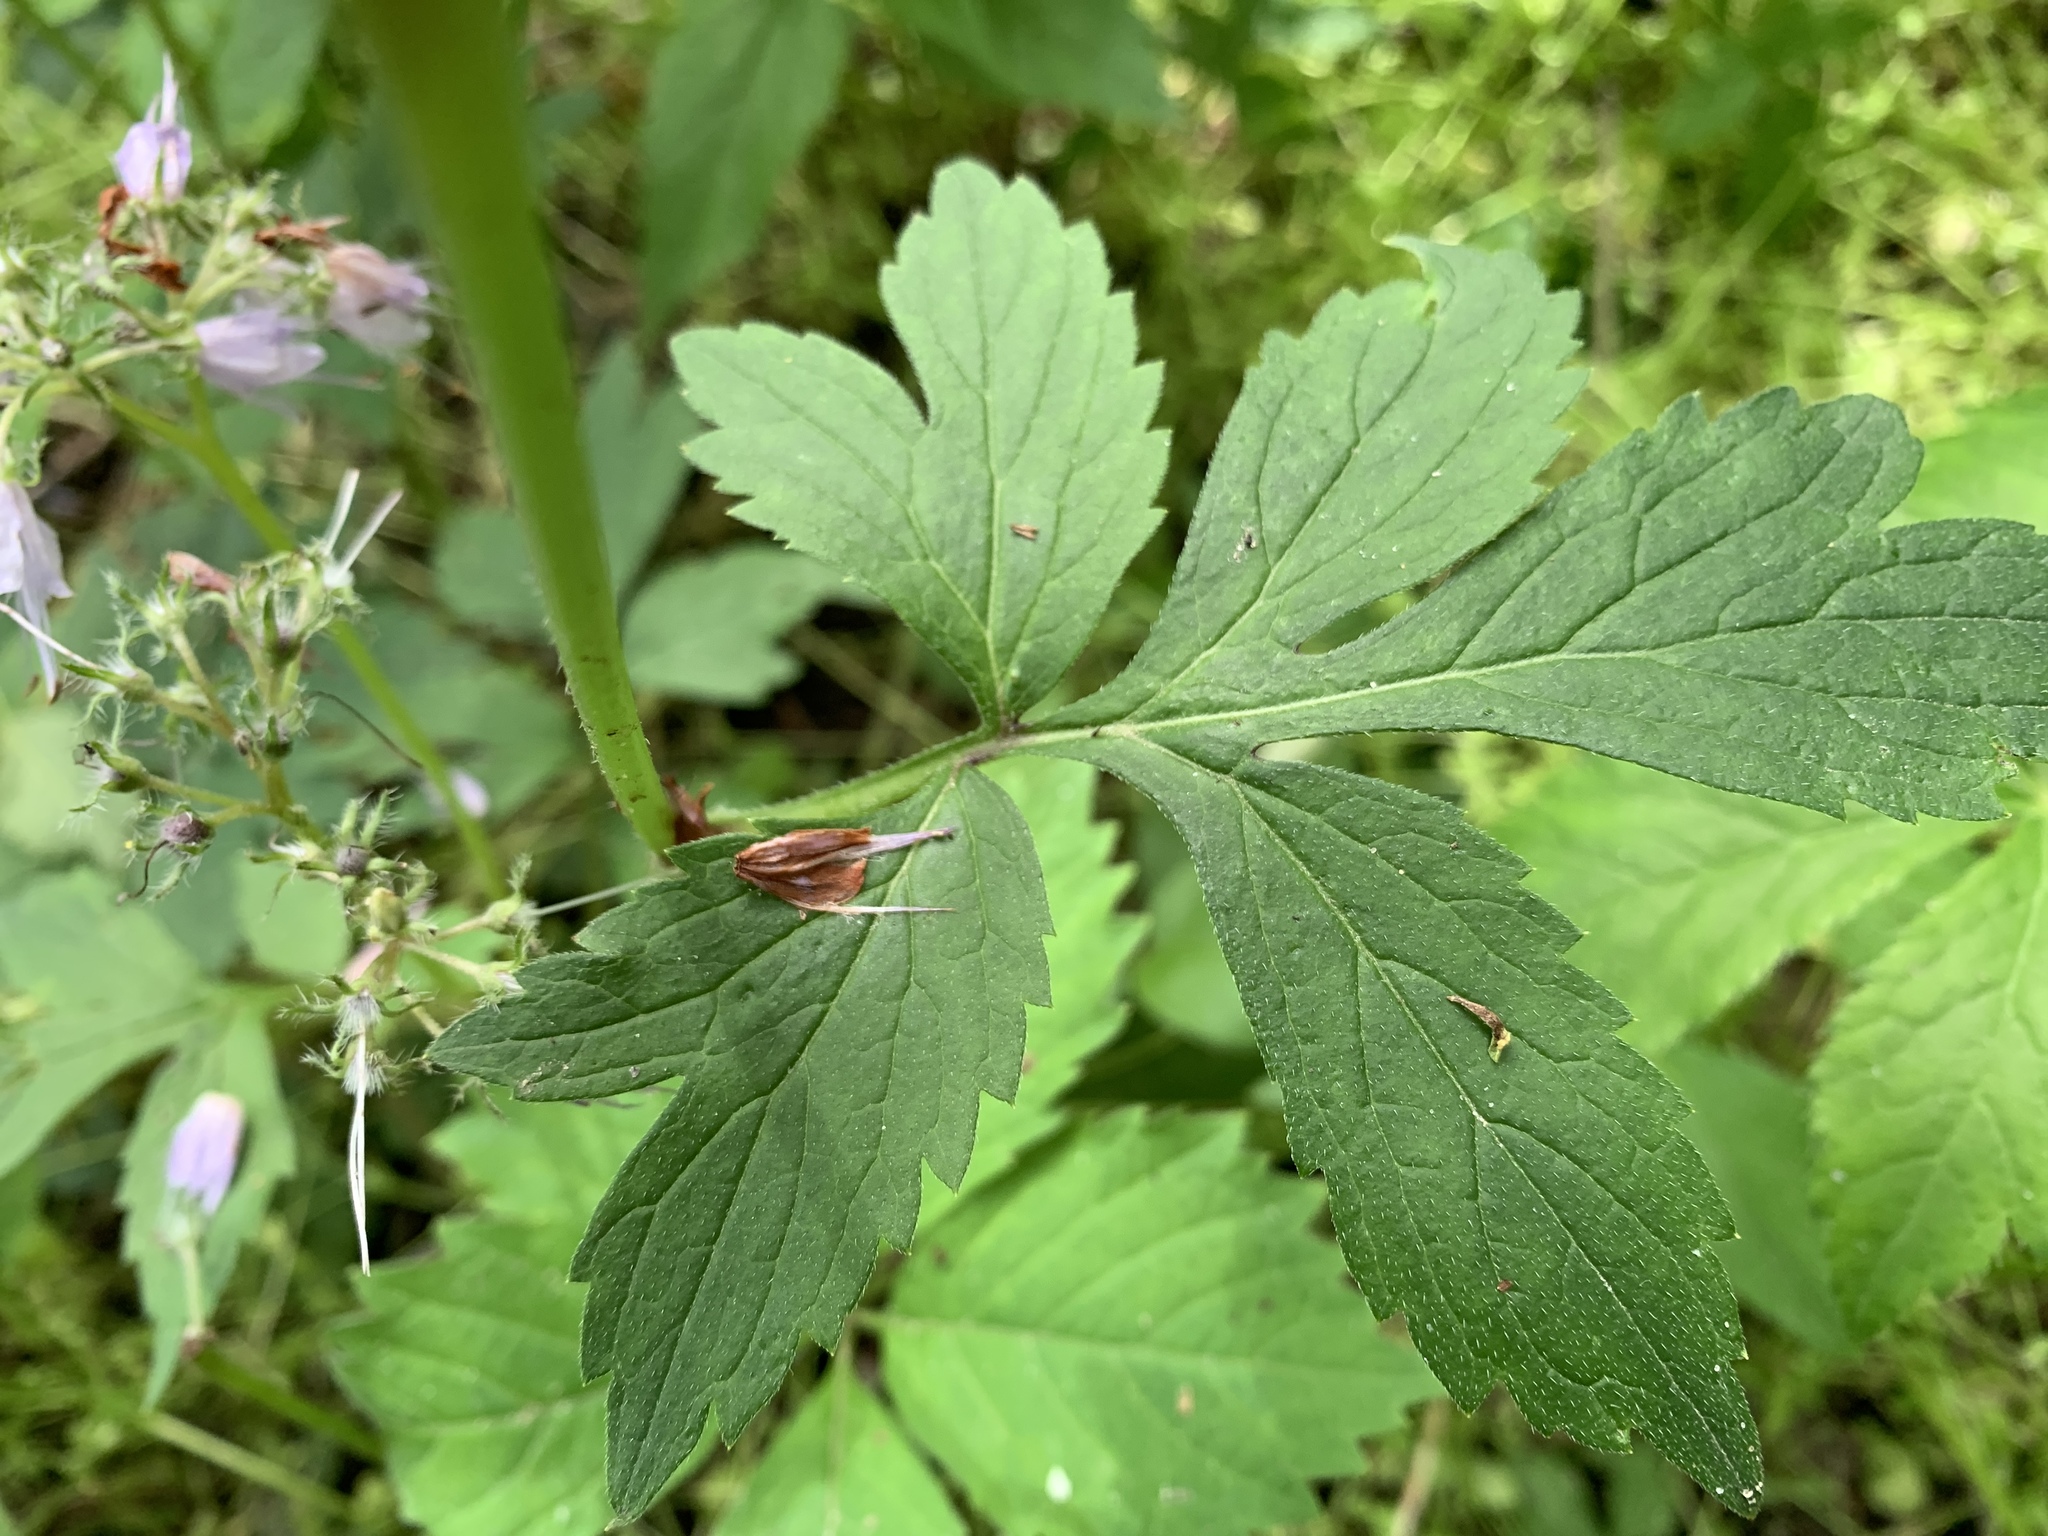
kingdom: Plantae
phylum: Tracheophyta
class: Magnoliopsida
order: Boraginales
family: Hydrophyllaceae
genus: Hydrophyllum
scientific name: Hydrophyllum virginianum
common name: Virginia waterleaf
